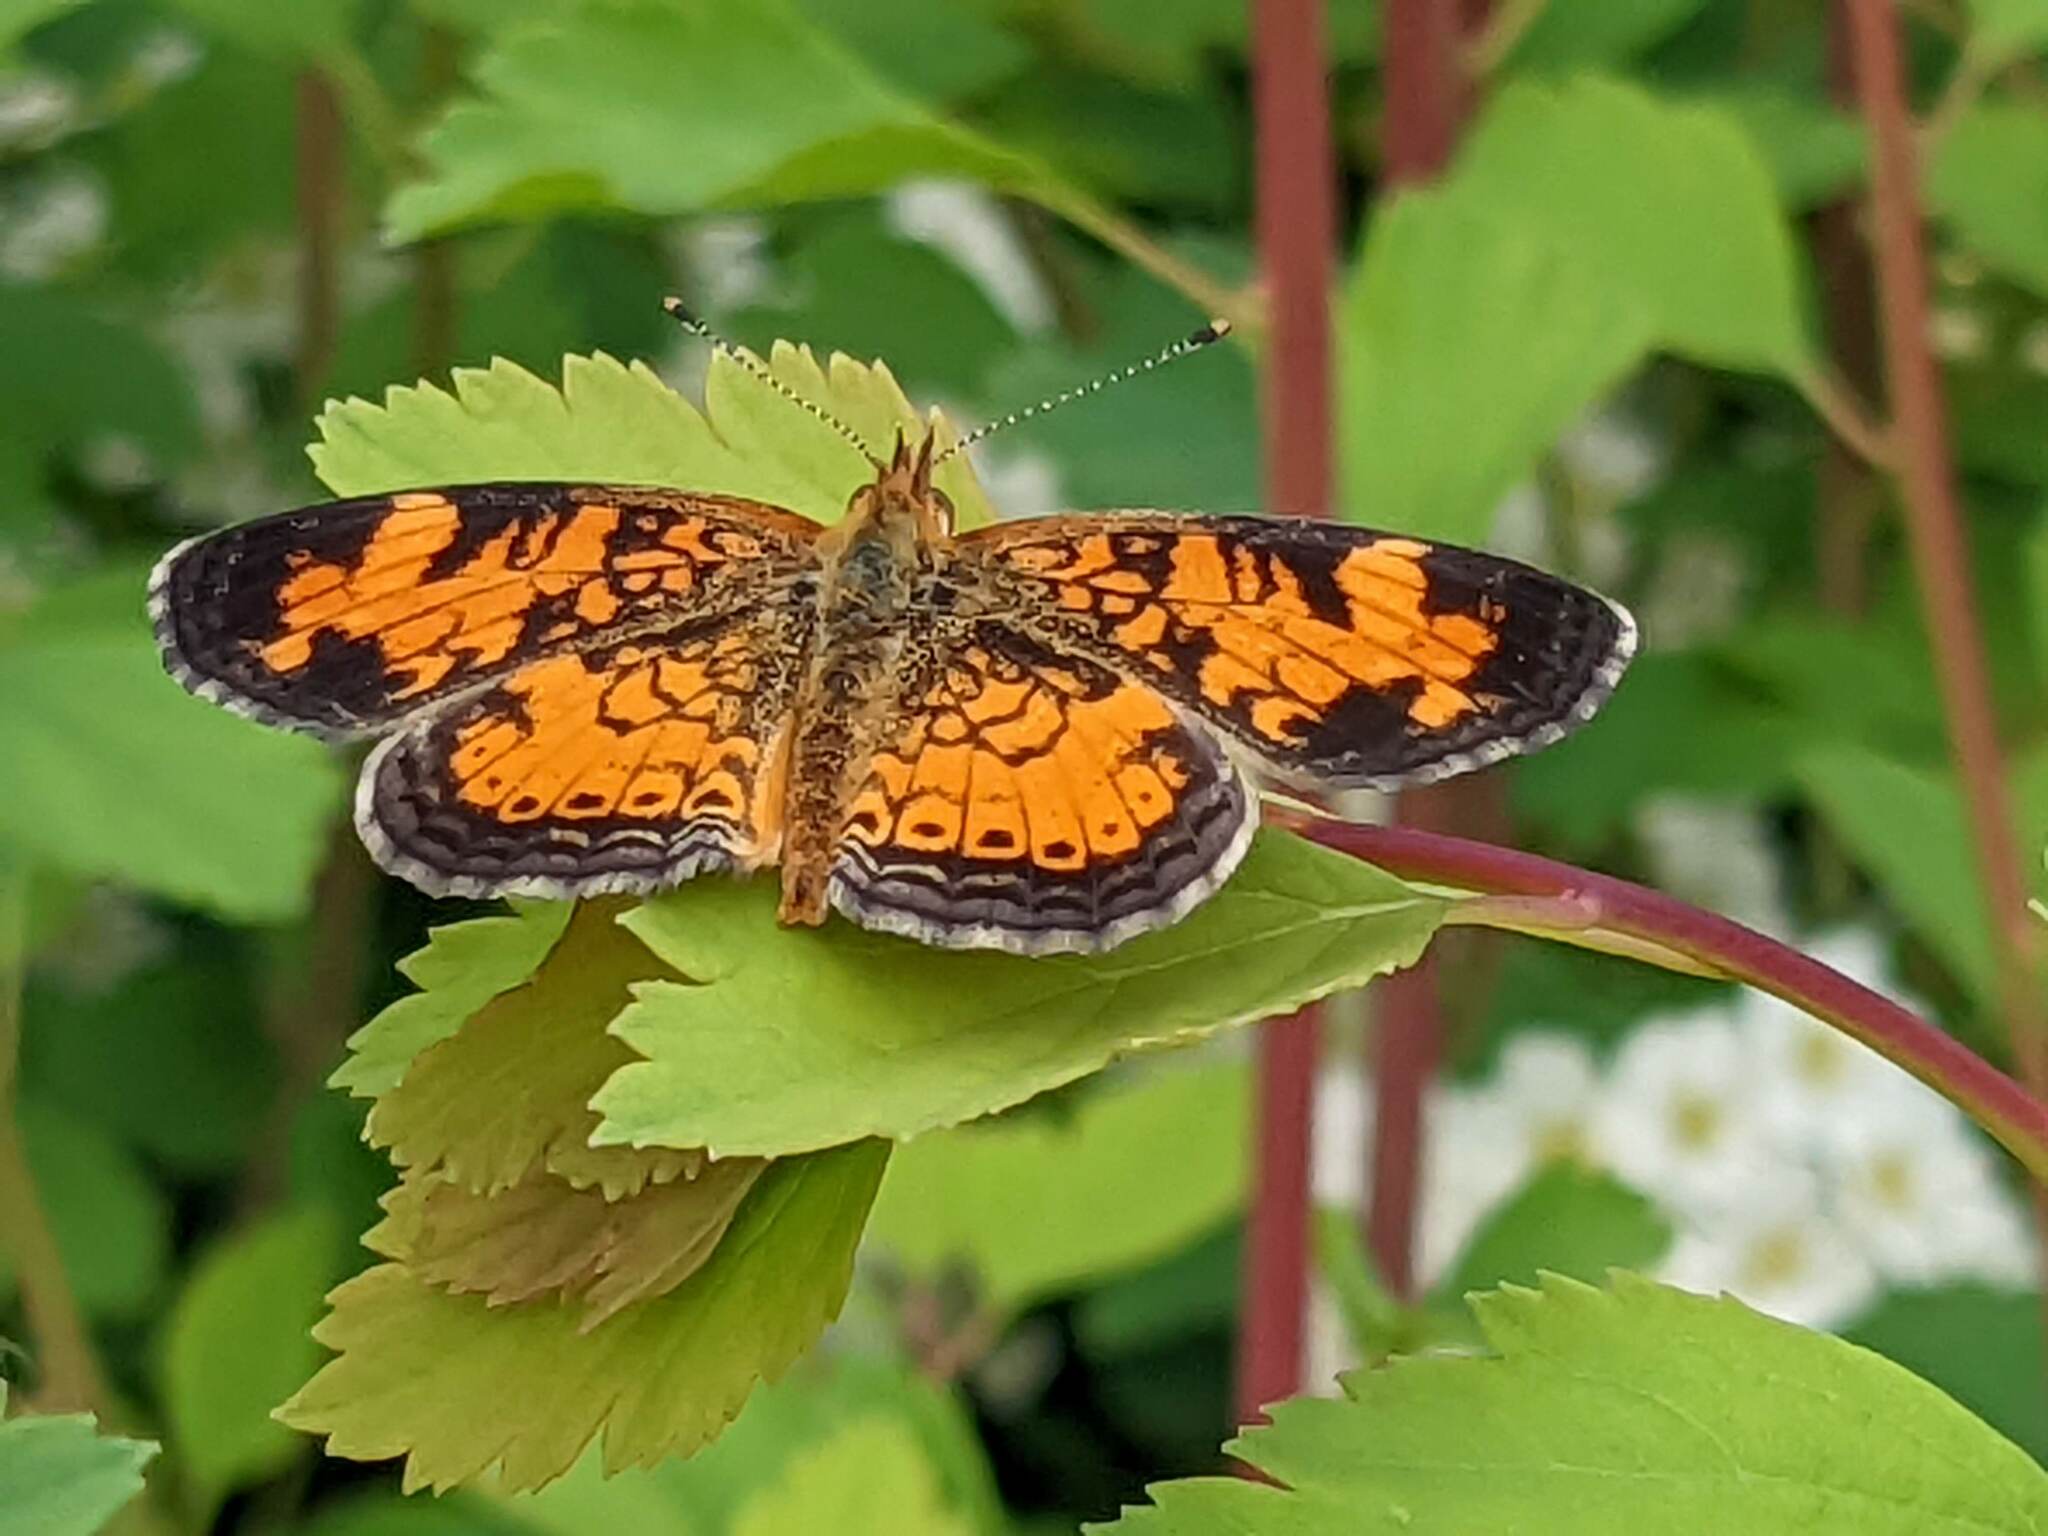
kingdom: Animalia
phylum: Arthropoda
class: Insecta
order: Lepidoptera
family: Nymphalidae
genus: Phyciodes
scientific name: Phyciodes tharos
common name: Pearl crescent
